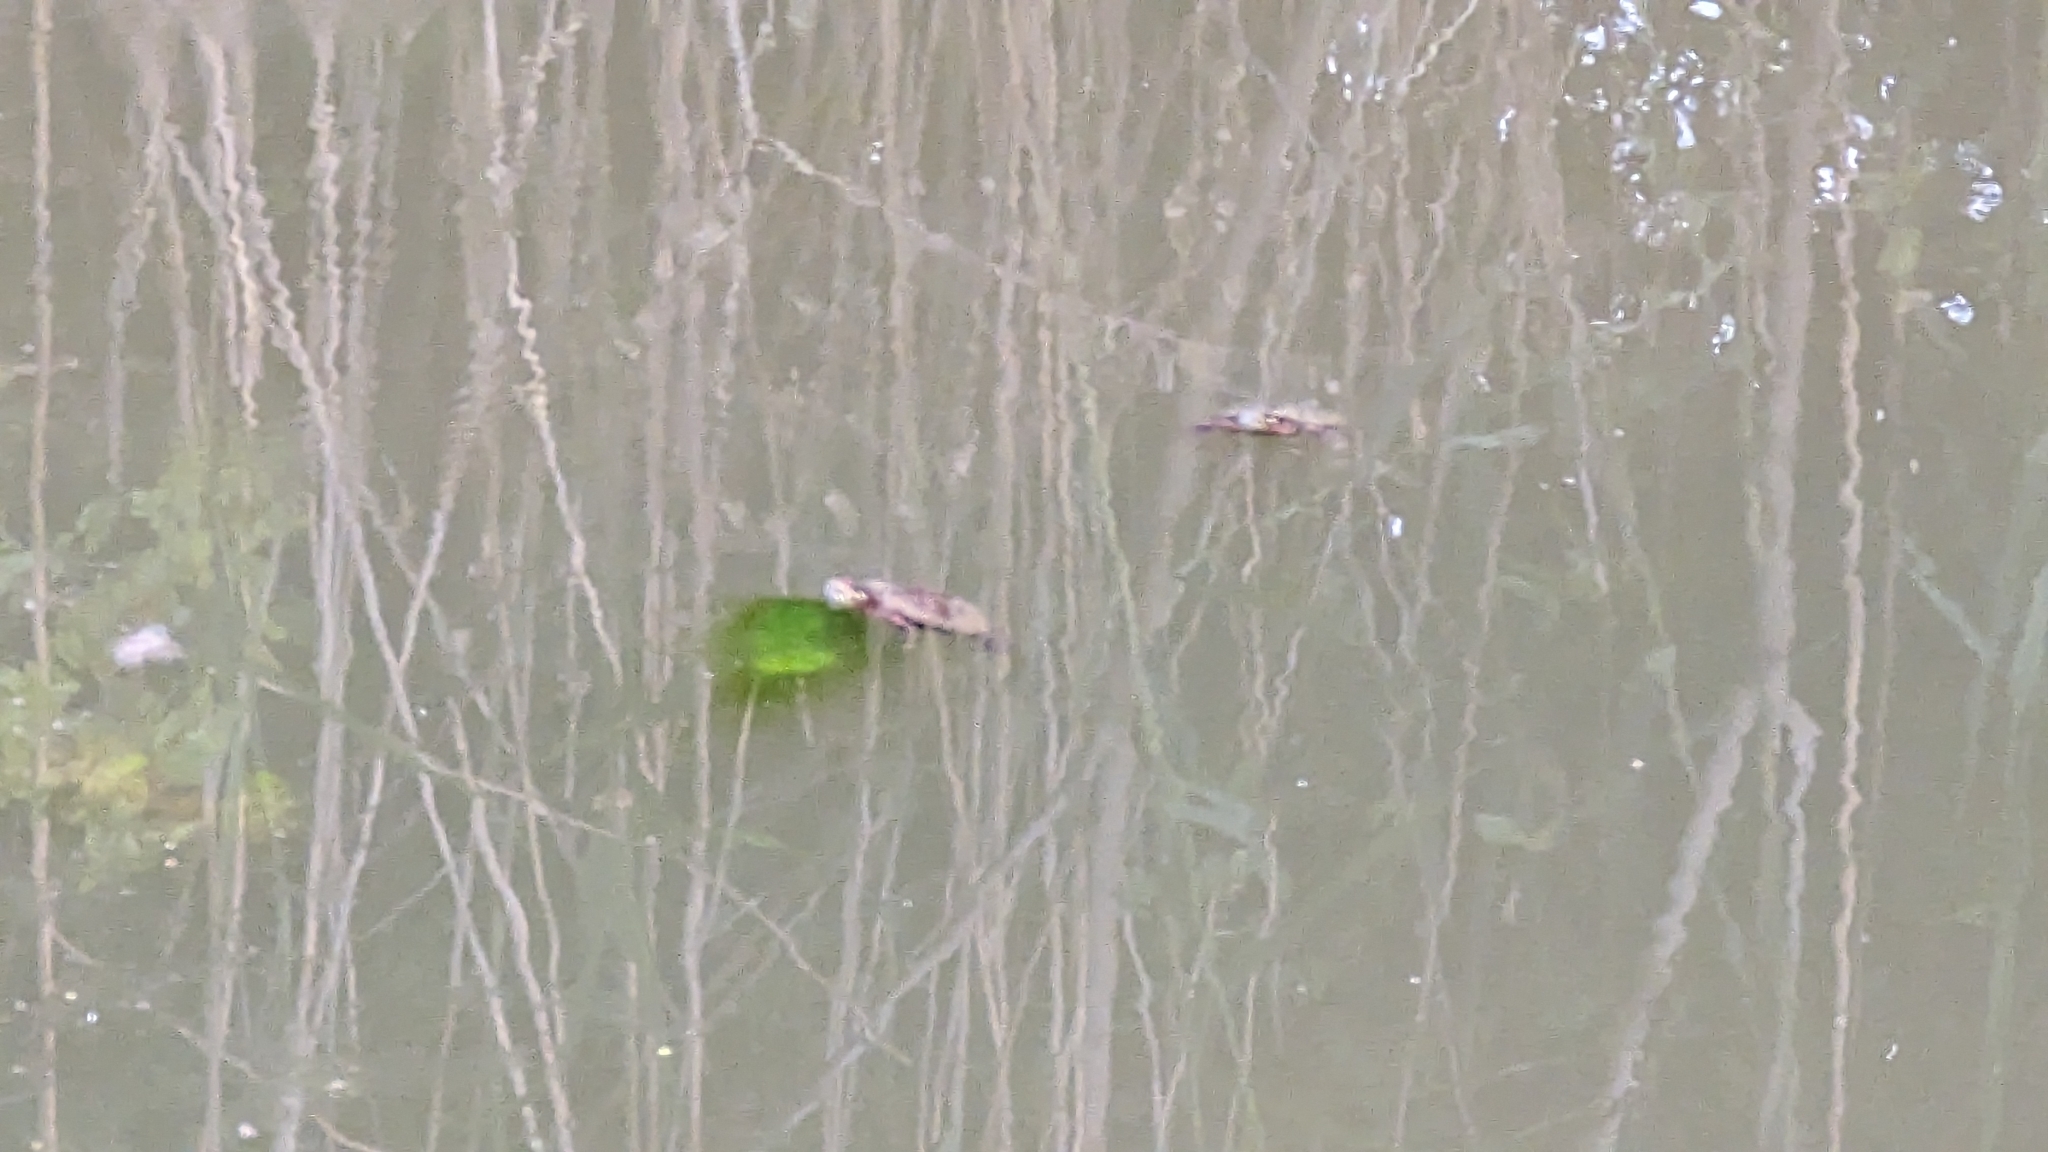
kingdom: Animalia
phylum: Chordata
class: Testudines
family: Emydidae
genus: Chrysemys
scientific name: Chrysemys picta
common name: Painted turtle
